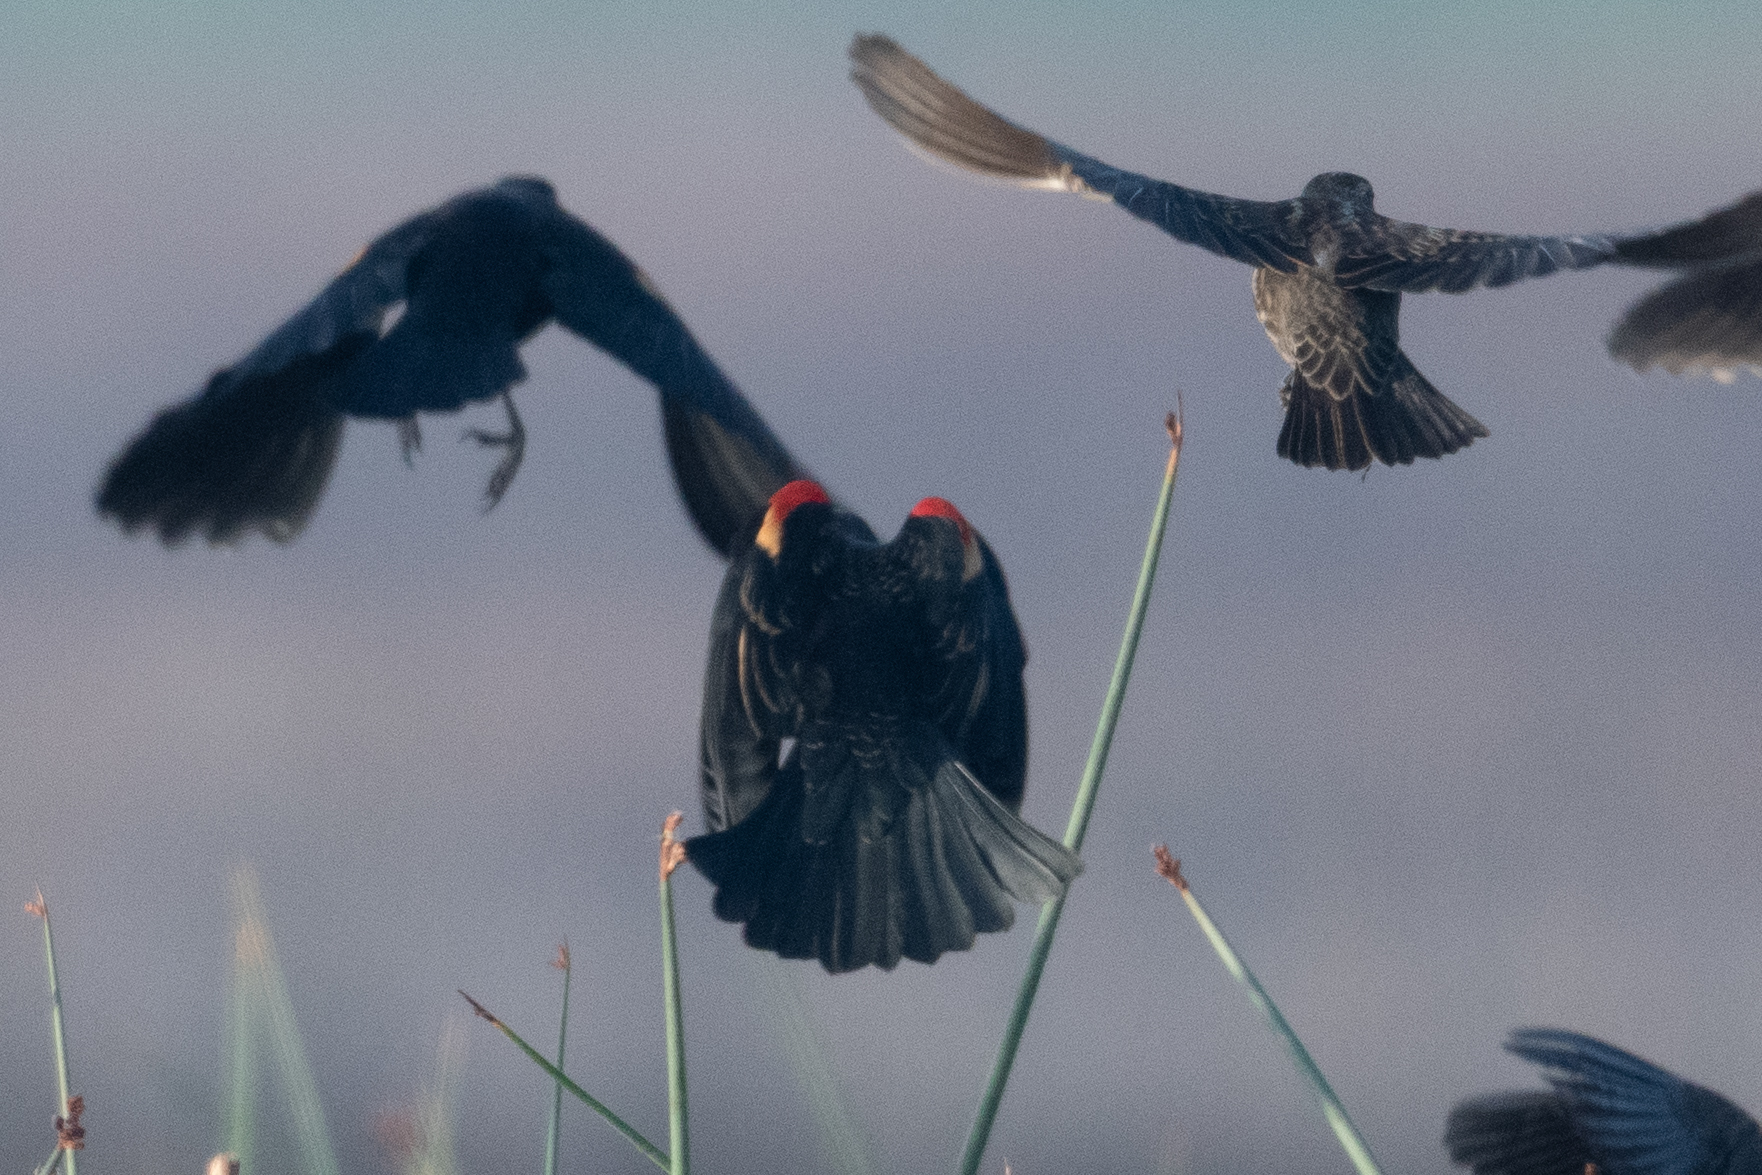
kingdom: Animalia
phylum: Chordata
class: Aves
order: Passeriformes
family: Icteridae
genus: Agelaius
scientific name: Agelaius phoeniceus
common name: Red-winged blackbird
